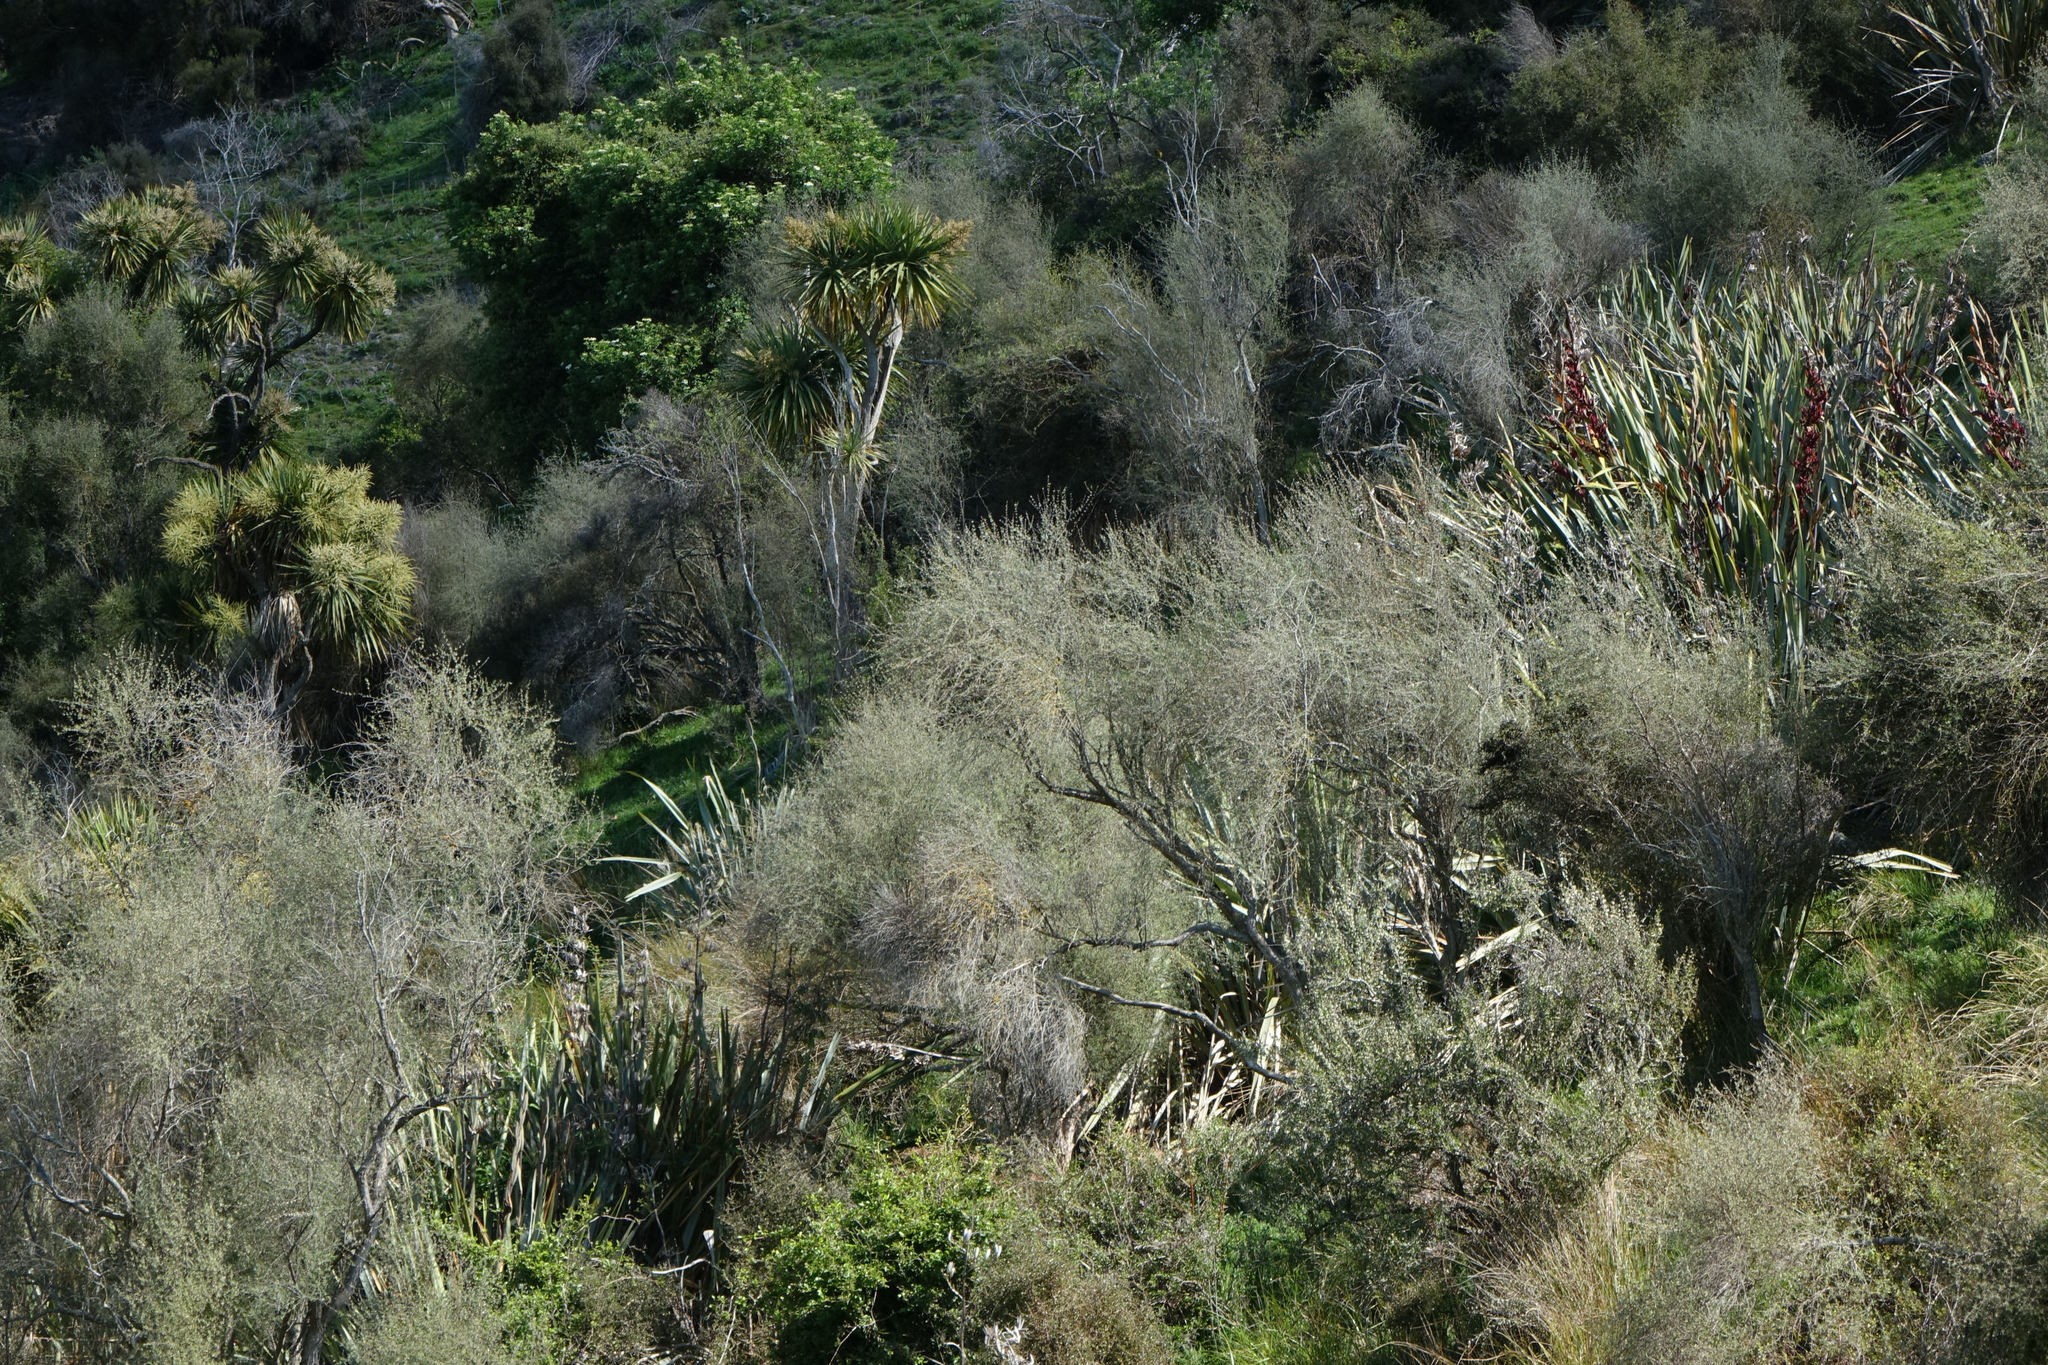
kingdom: Plantae
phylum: Tracheophyta
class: Magnoliopsida
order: Asterales
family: Asteraceae
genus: Olearia
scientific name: Olearia lineata
